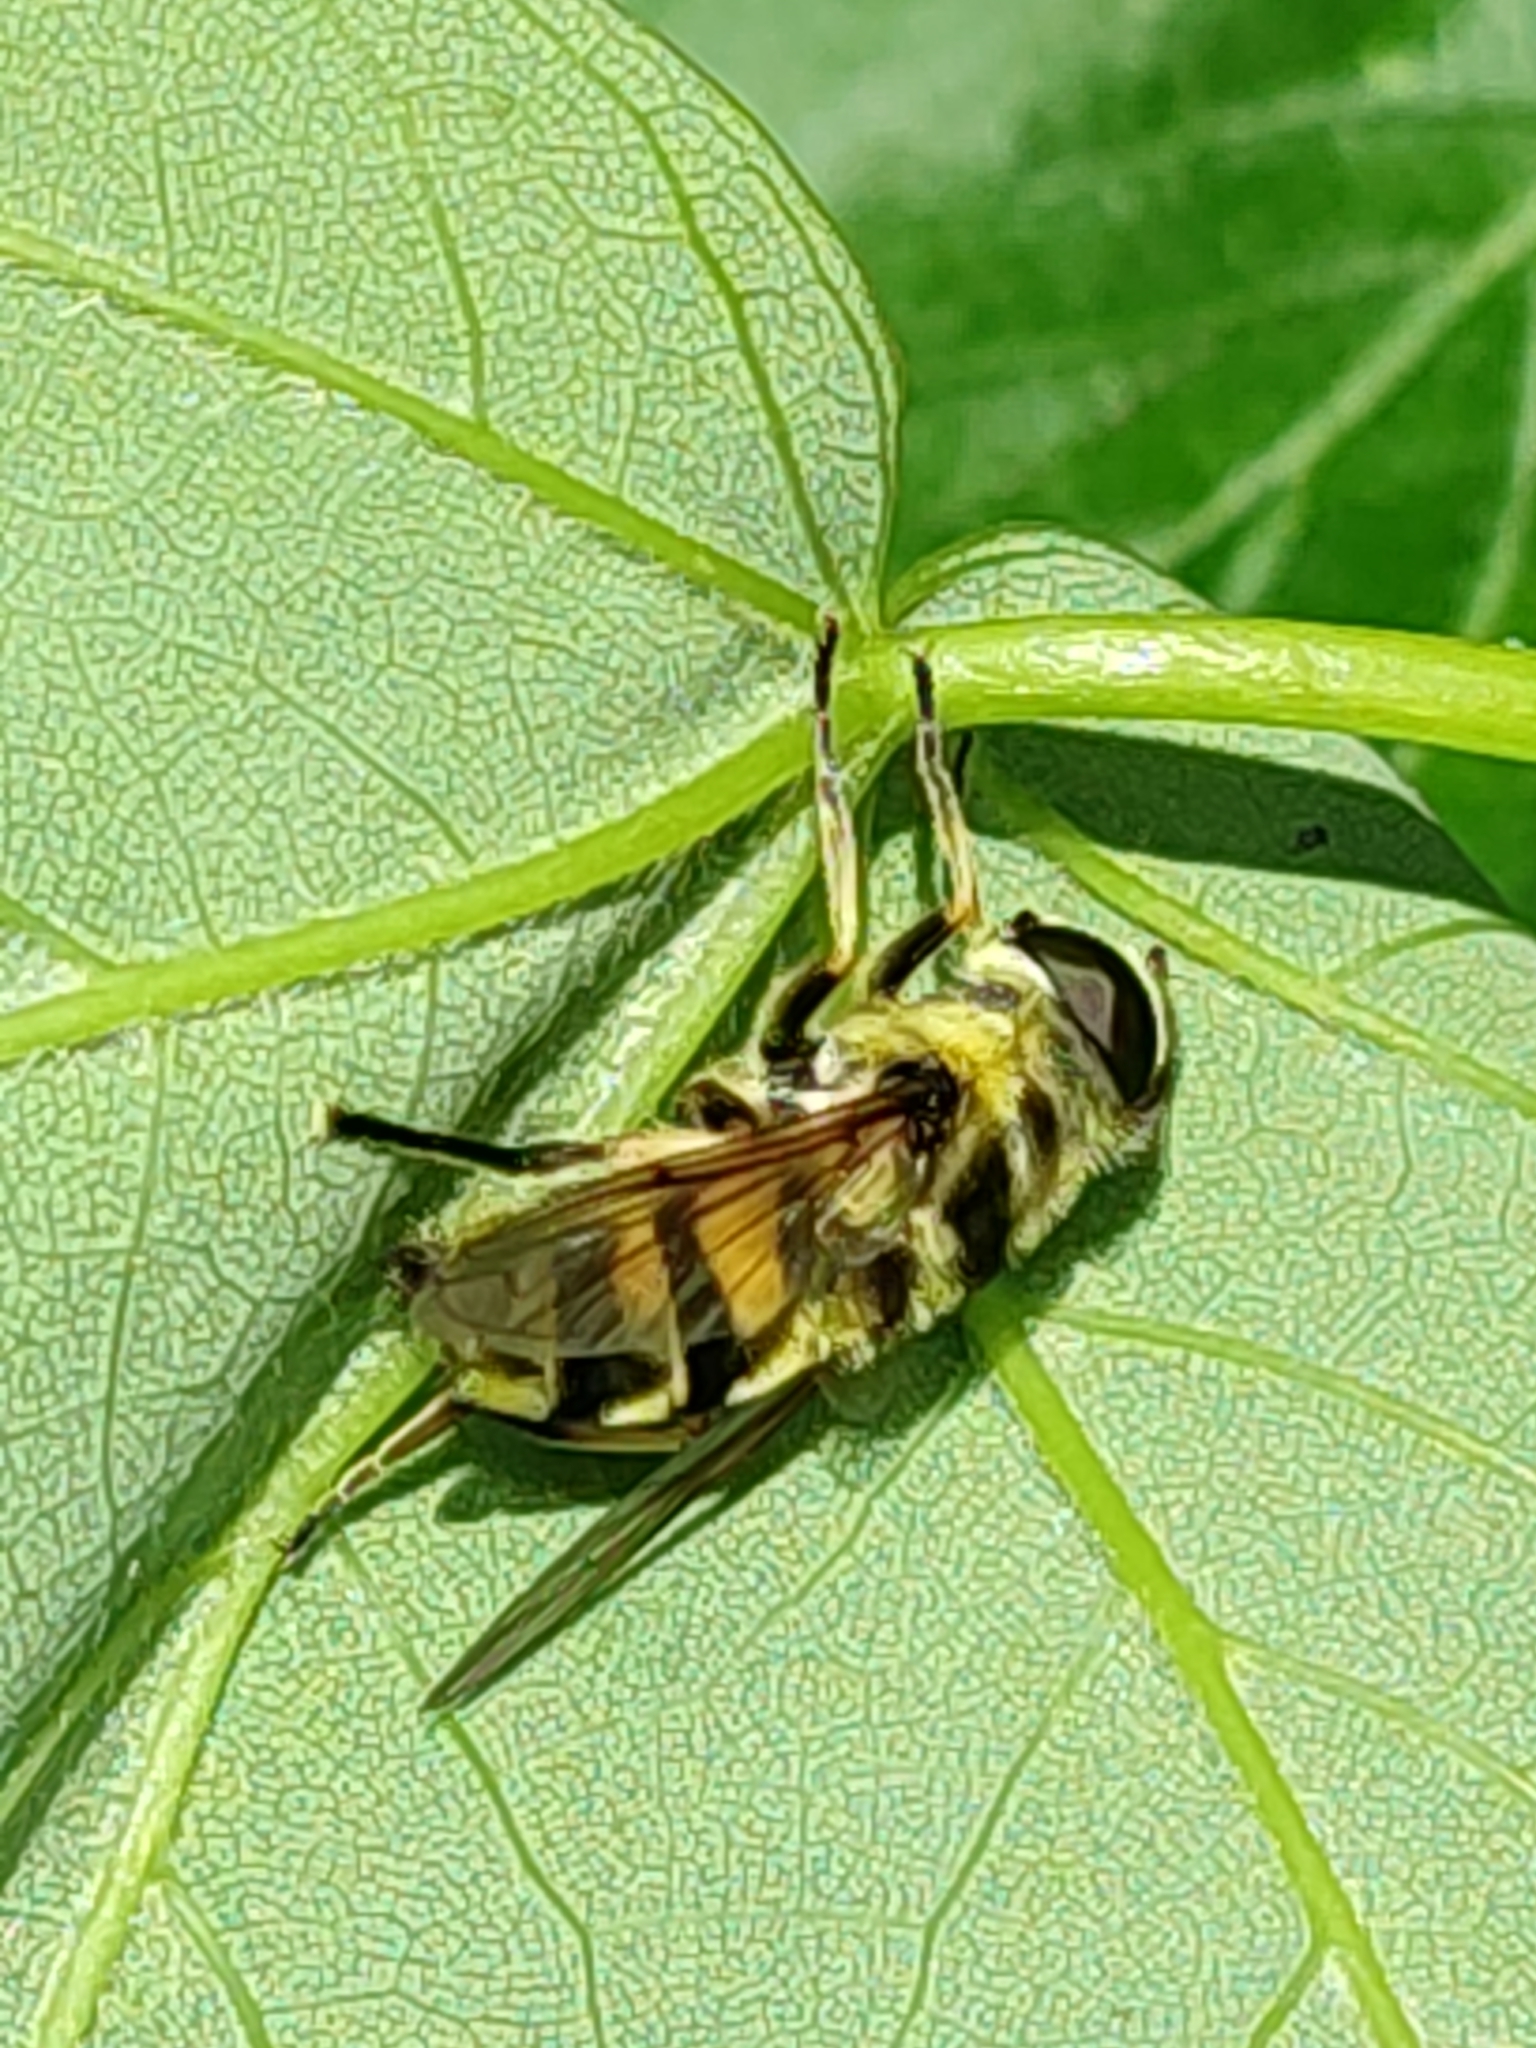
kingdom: Animalia
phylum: Arthropoda
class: Insecta
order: Diptera
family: Syrphidae
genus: Myathropa
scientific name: Myathropa florea
